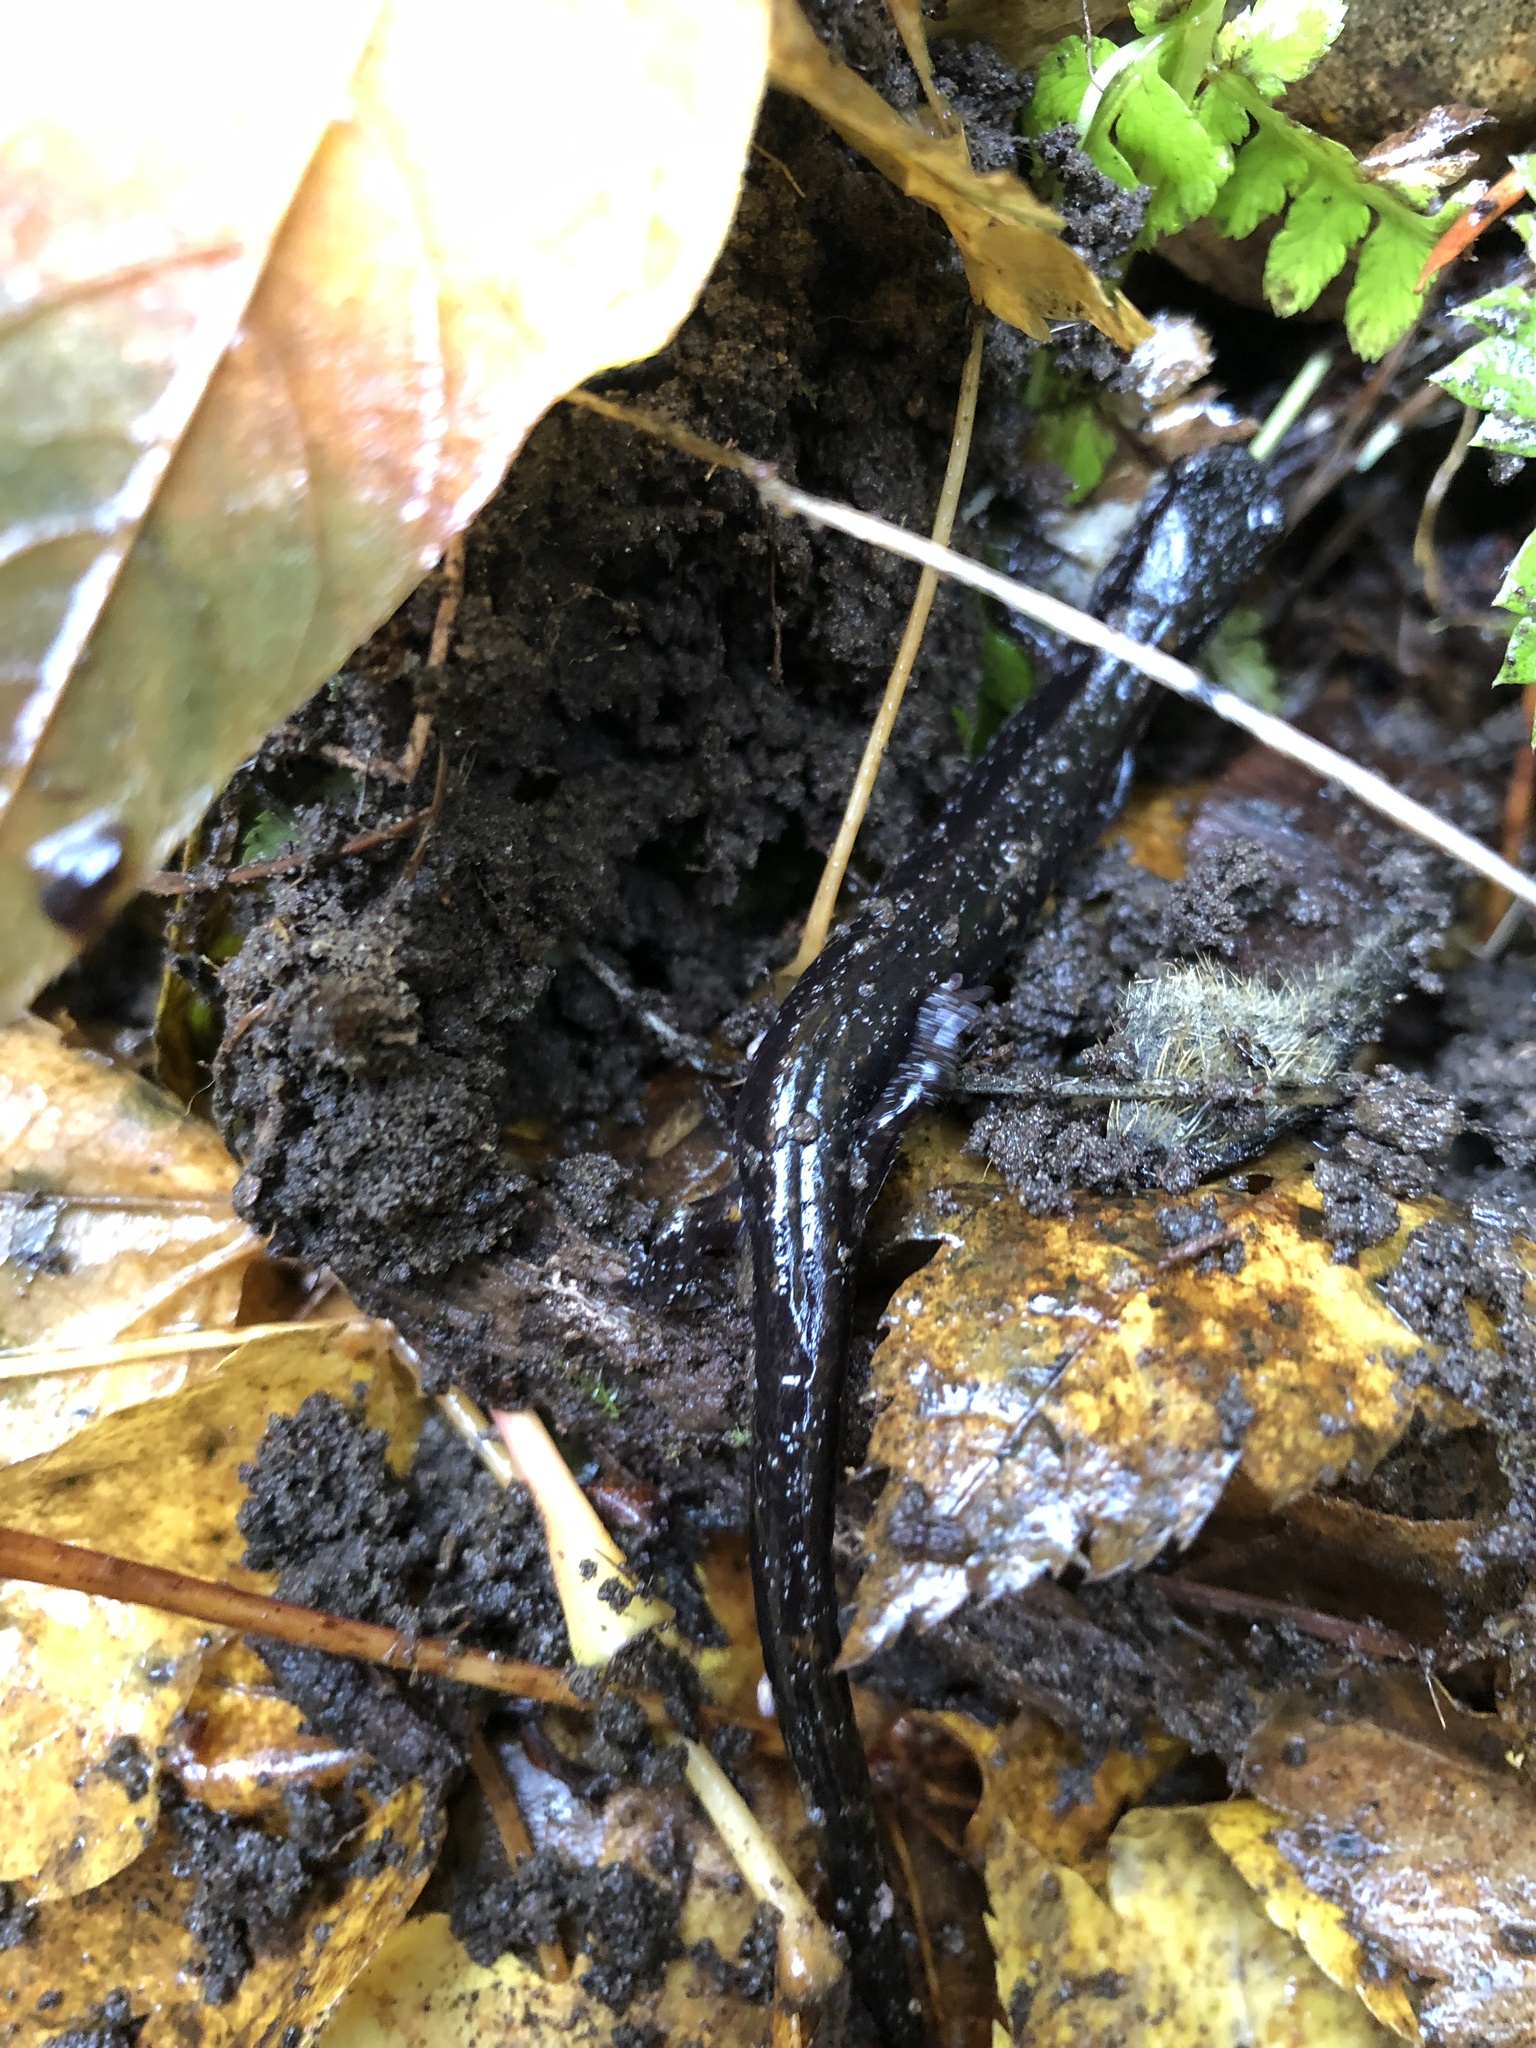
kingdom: Animalia
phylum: Chordata
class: Amphibia
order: Caudata
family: Plethodontidae
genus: Plethodon
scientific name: Plethodon vehiculum
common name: Western red-backed salamander
